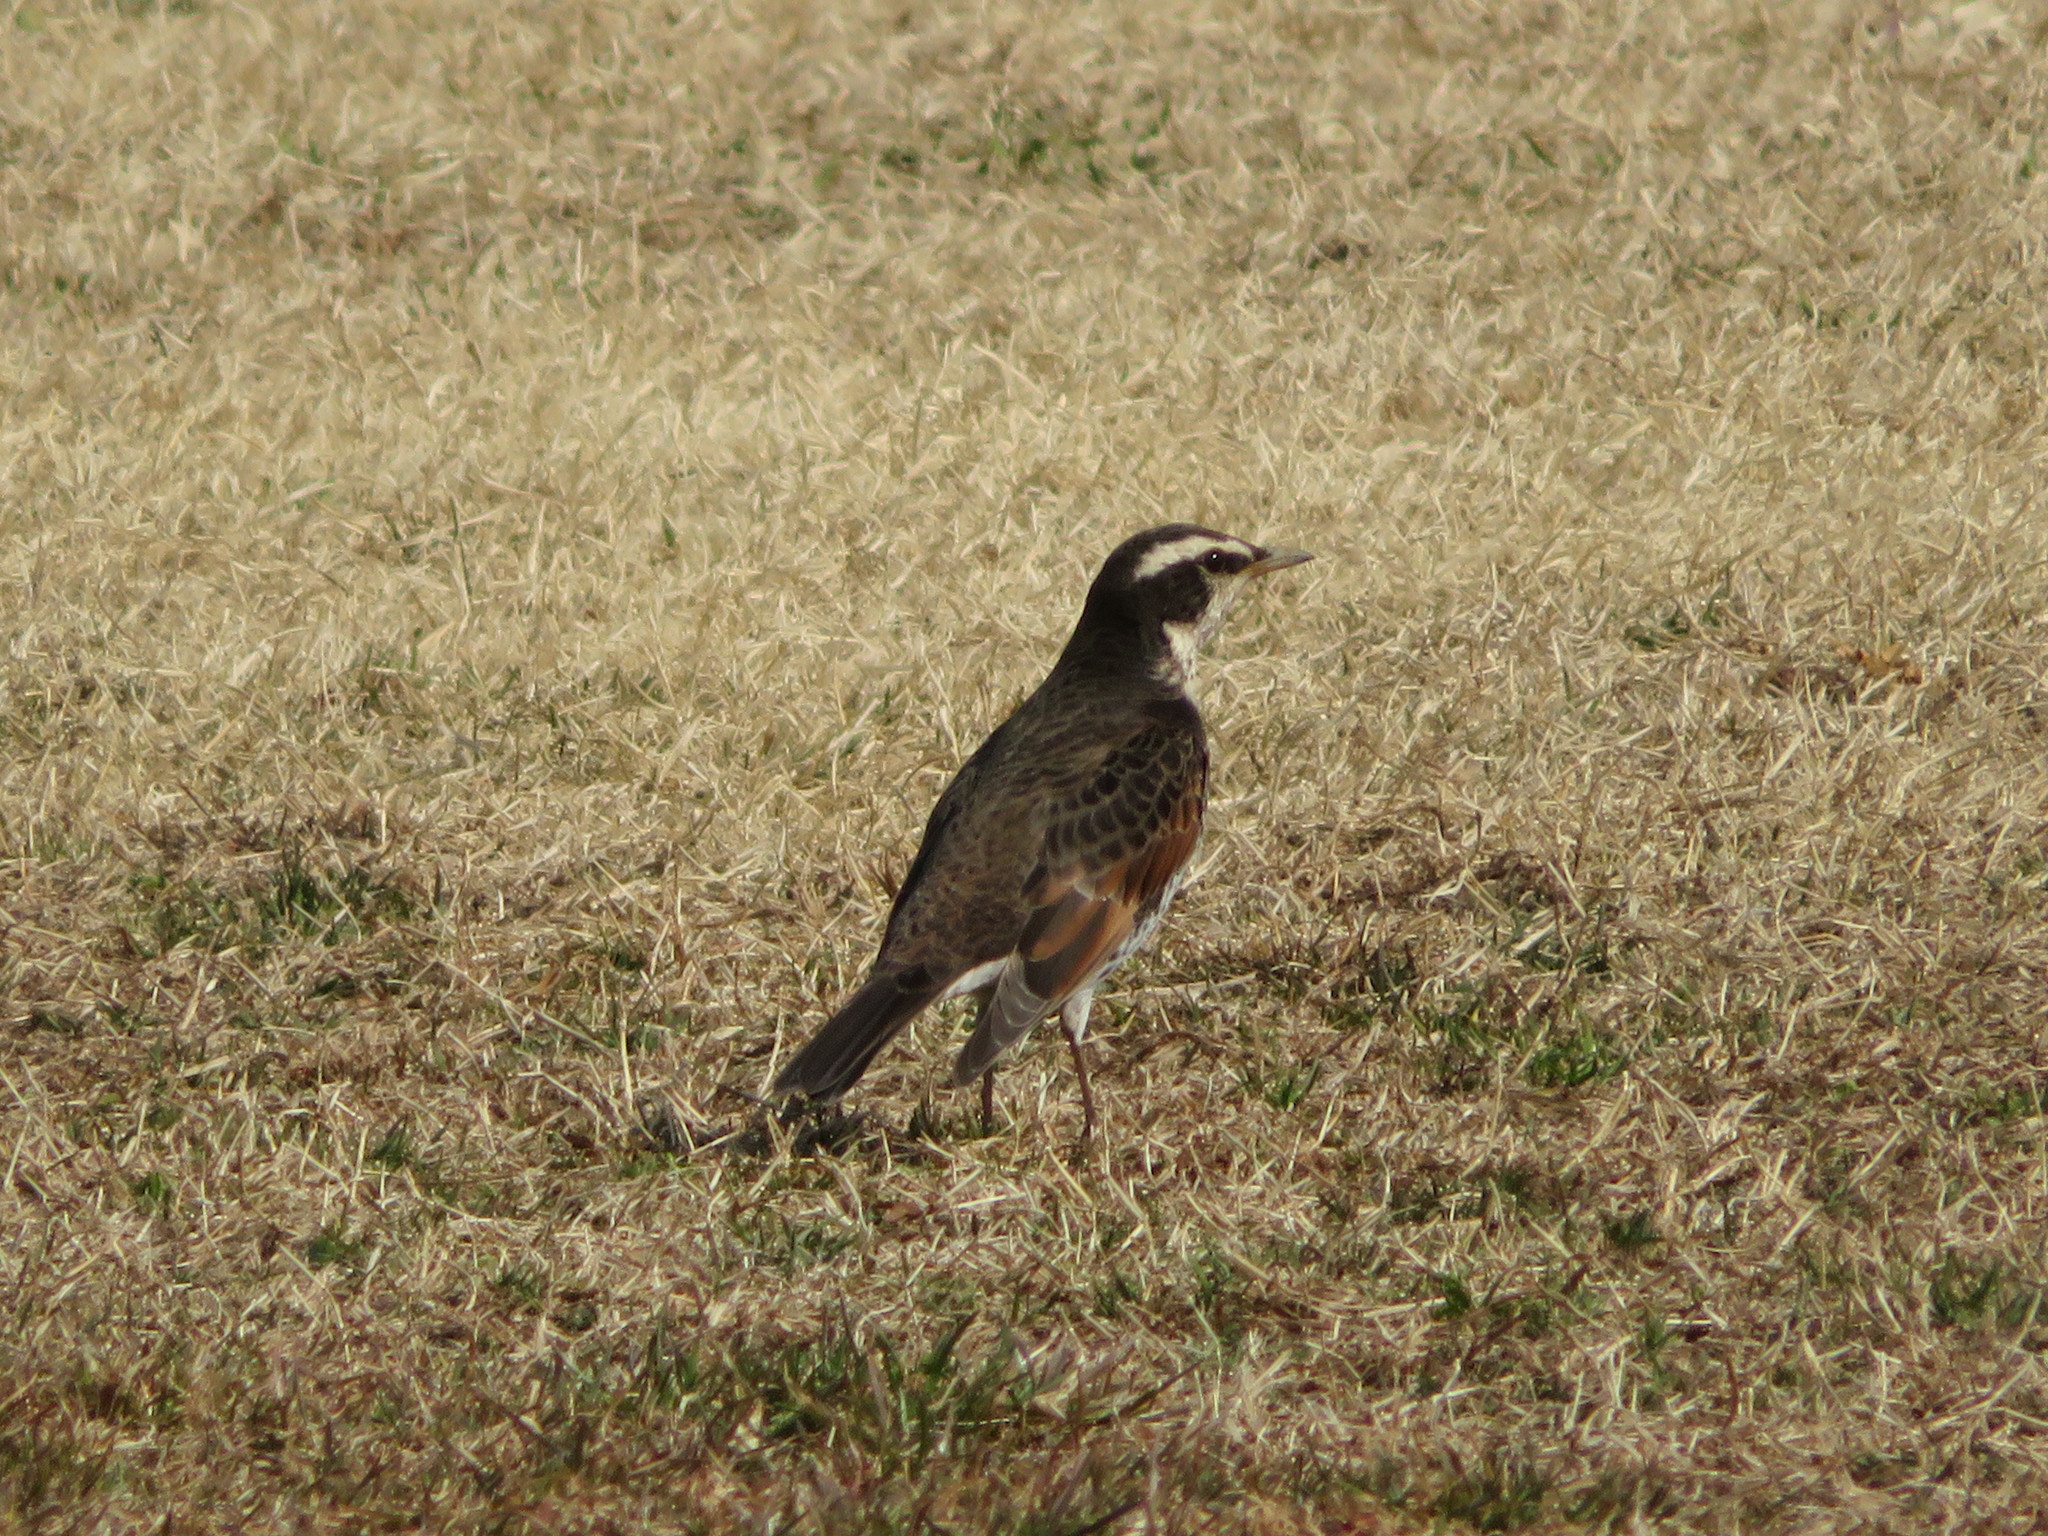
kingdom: Animalia
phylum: Chordata
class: Aves
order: Passeriformes
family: Turdidae
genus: Turdus
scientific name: Turdus eunomus
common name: Dusky thrush
